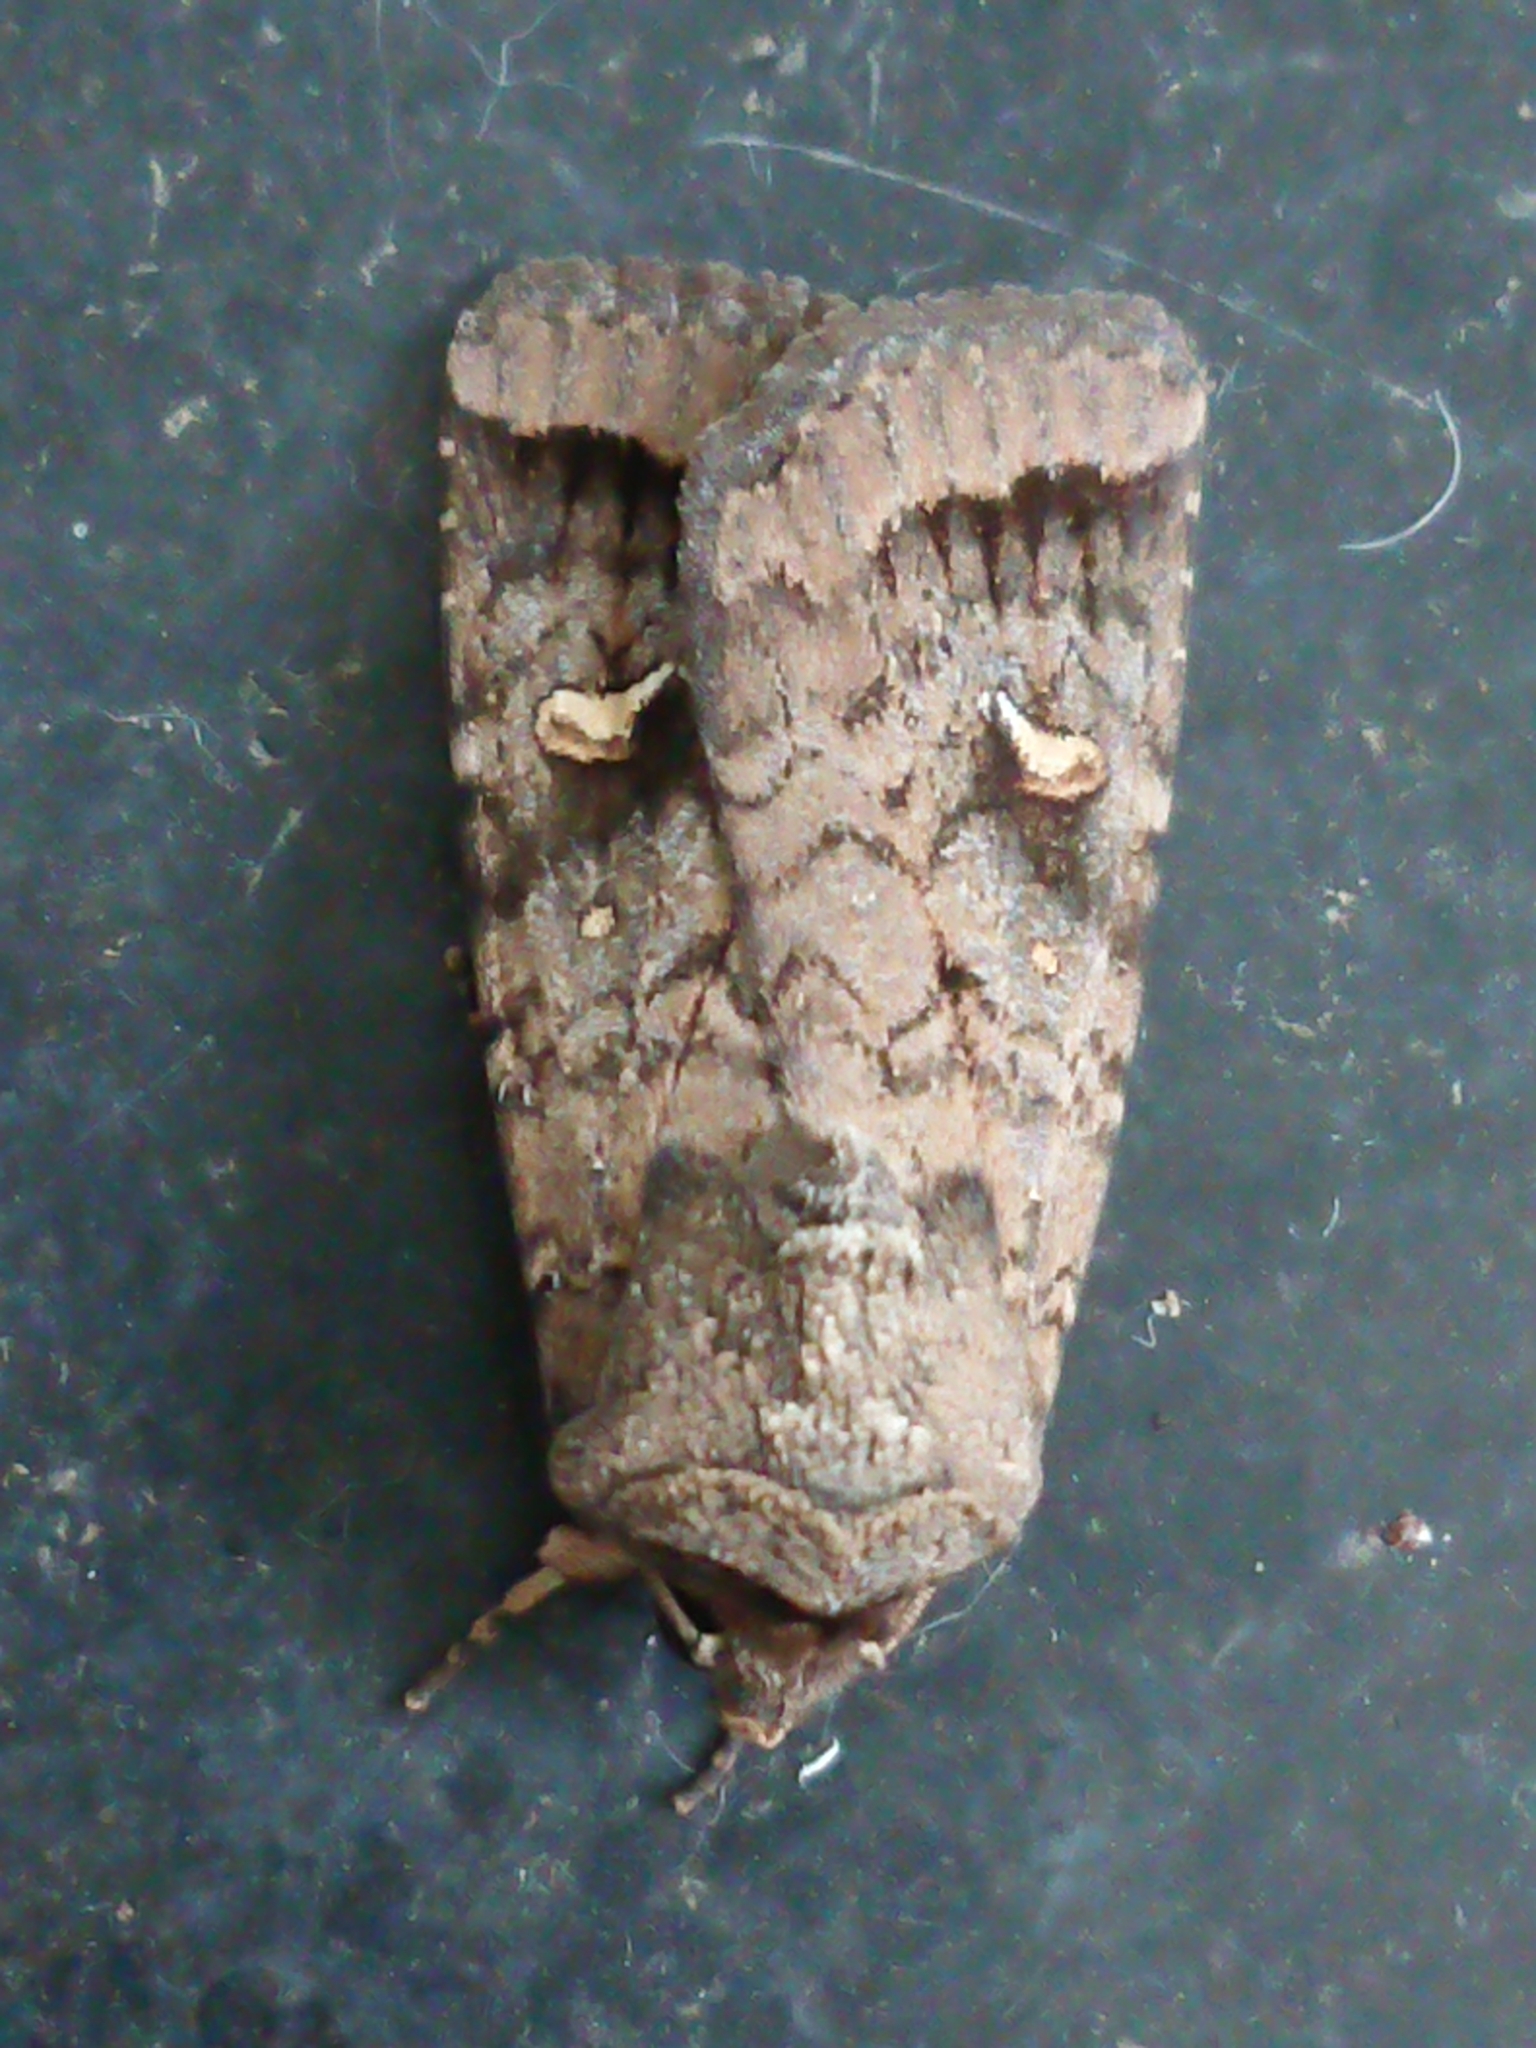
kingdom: Animalia
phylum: Arthropoda
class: Insecta
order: Lepidoptera
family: Noctuidae
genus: Proteuxoa
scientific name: Proteuxoa tetronycha
